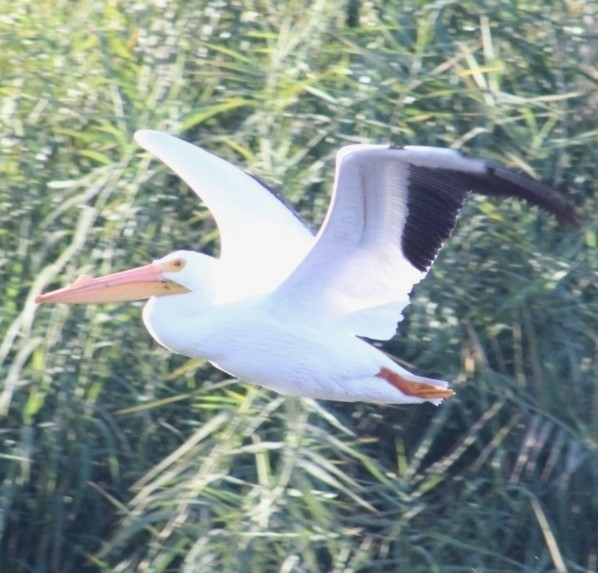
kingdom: Animalia
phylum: Chordata
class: Aves
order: Pelecaniformes
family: Pelecanidae
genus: Pelecanus
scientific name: Pelecanus erythrorhynchos
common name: American white pelican
